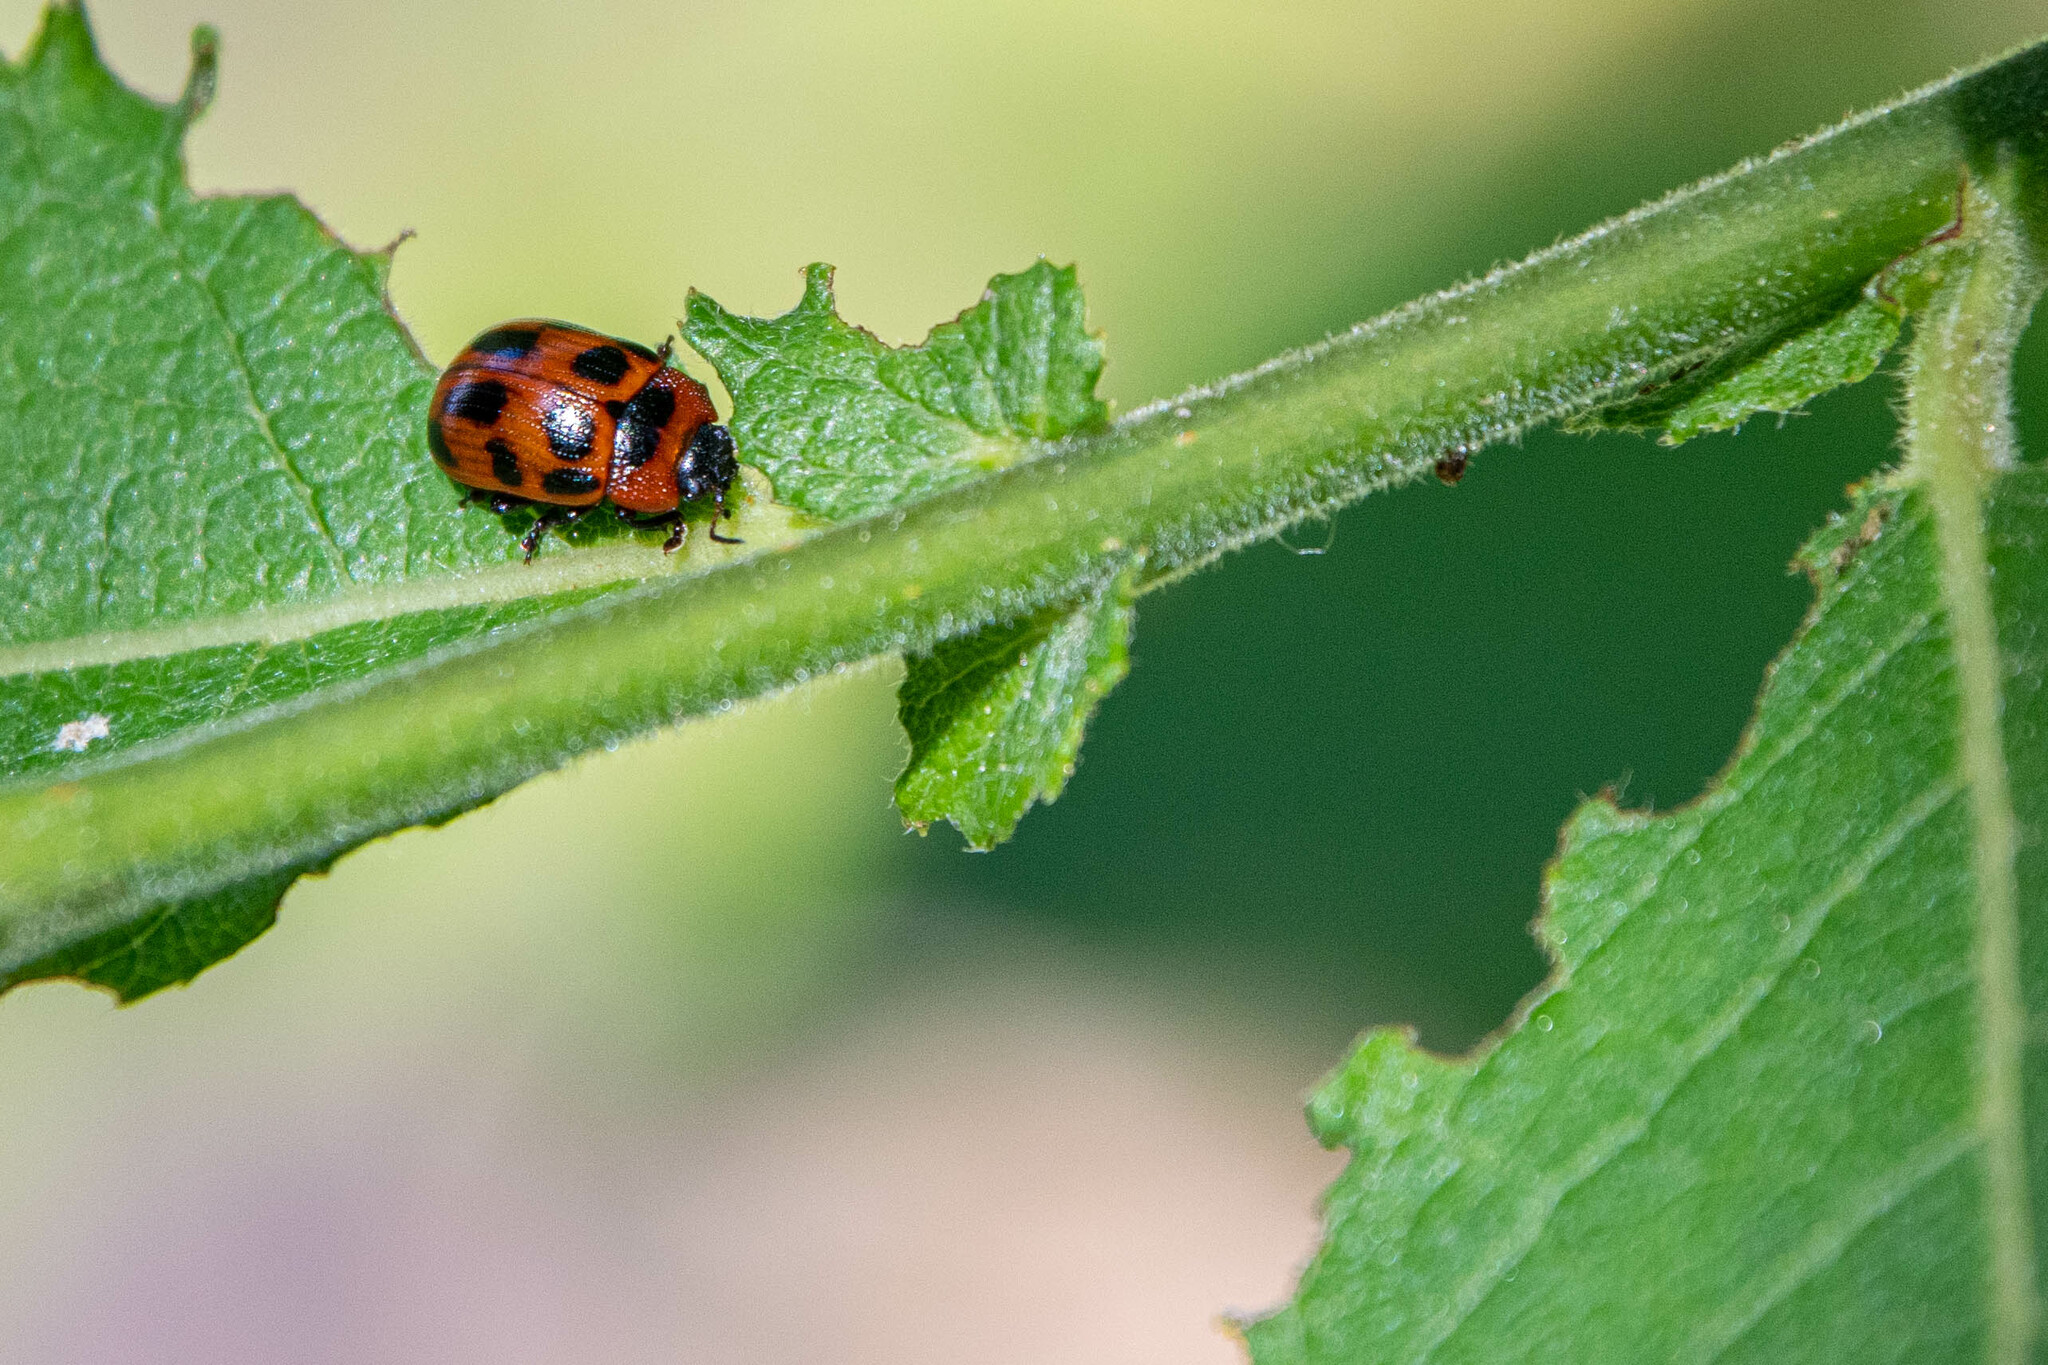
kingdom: Animalia
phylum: Arthropoda
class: Insecta
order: Coleoptera
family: Chrysomelidae
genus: Gonioctena
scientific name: Gonioctena viminalis
